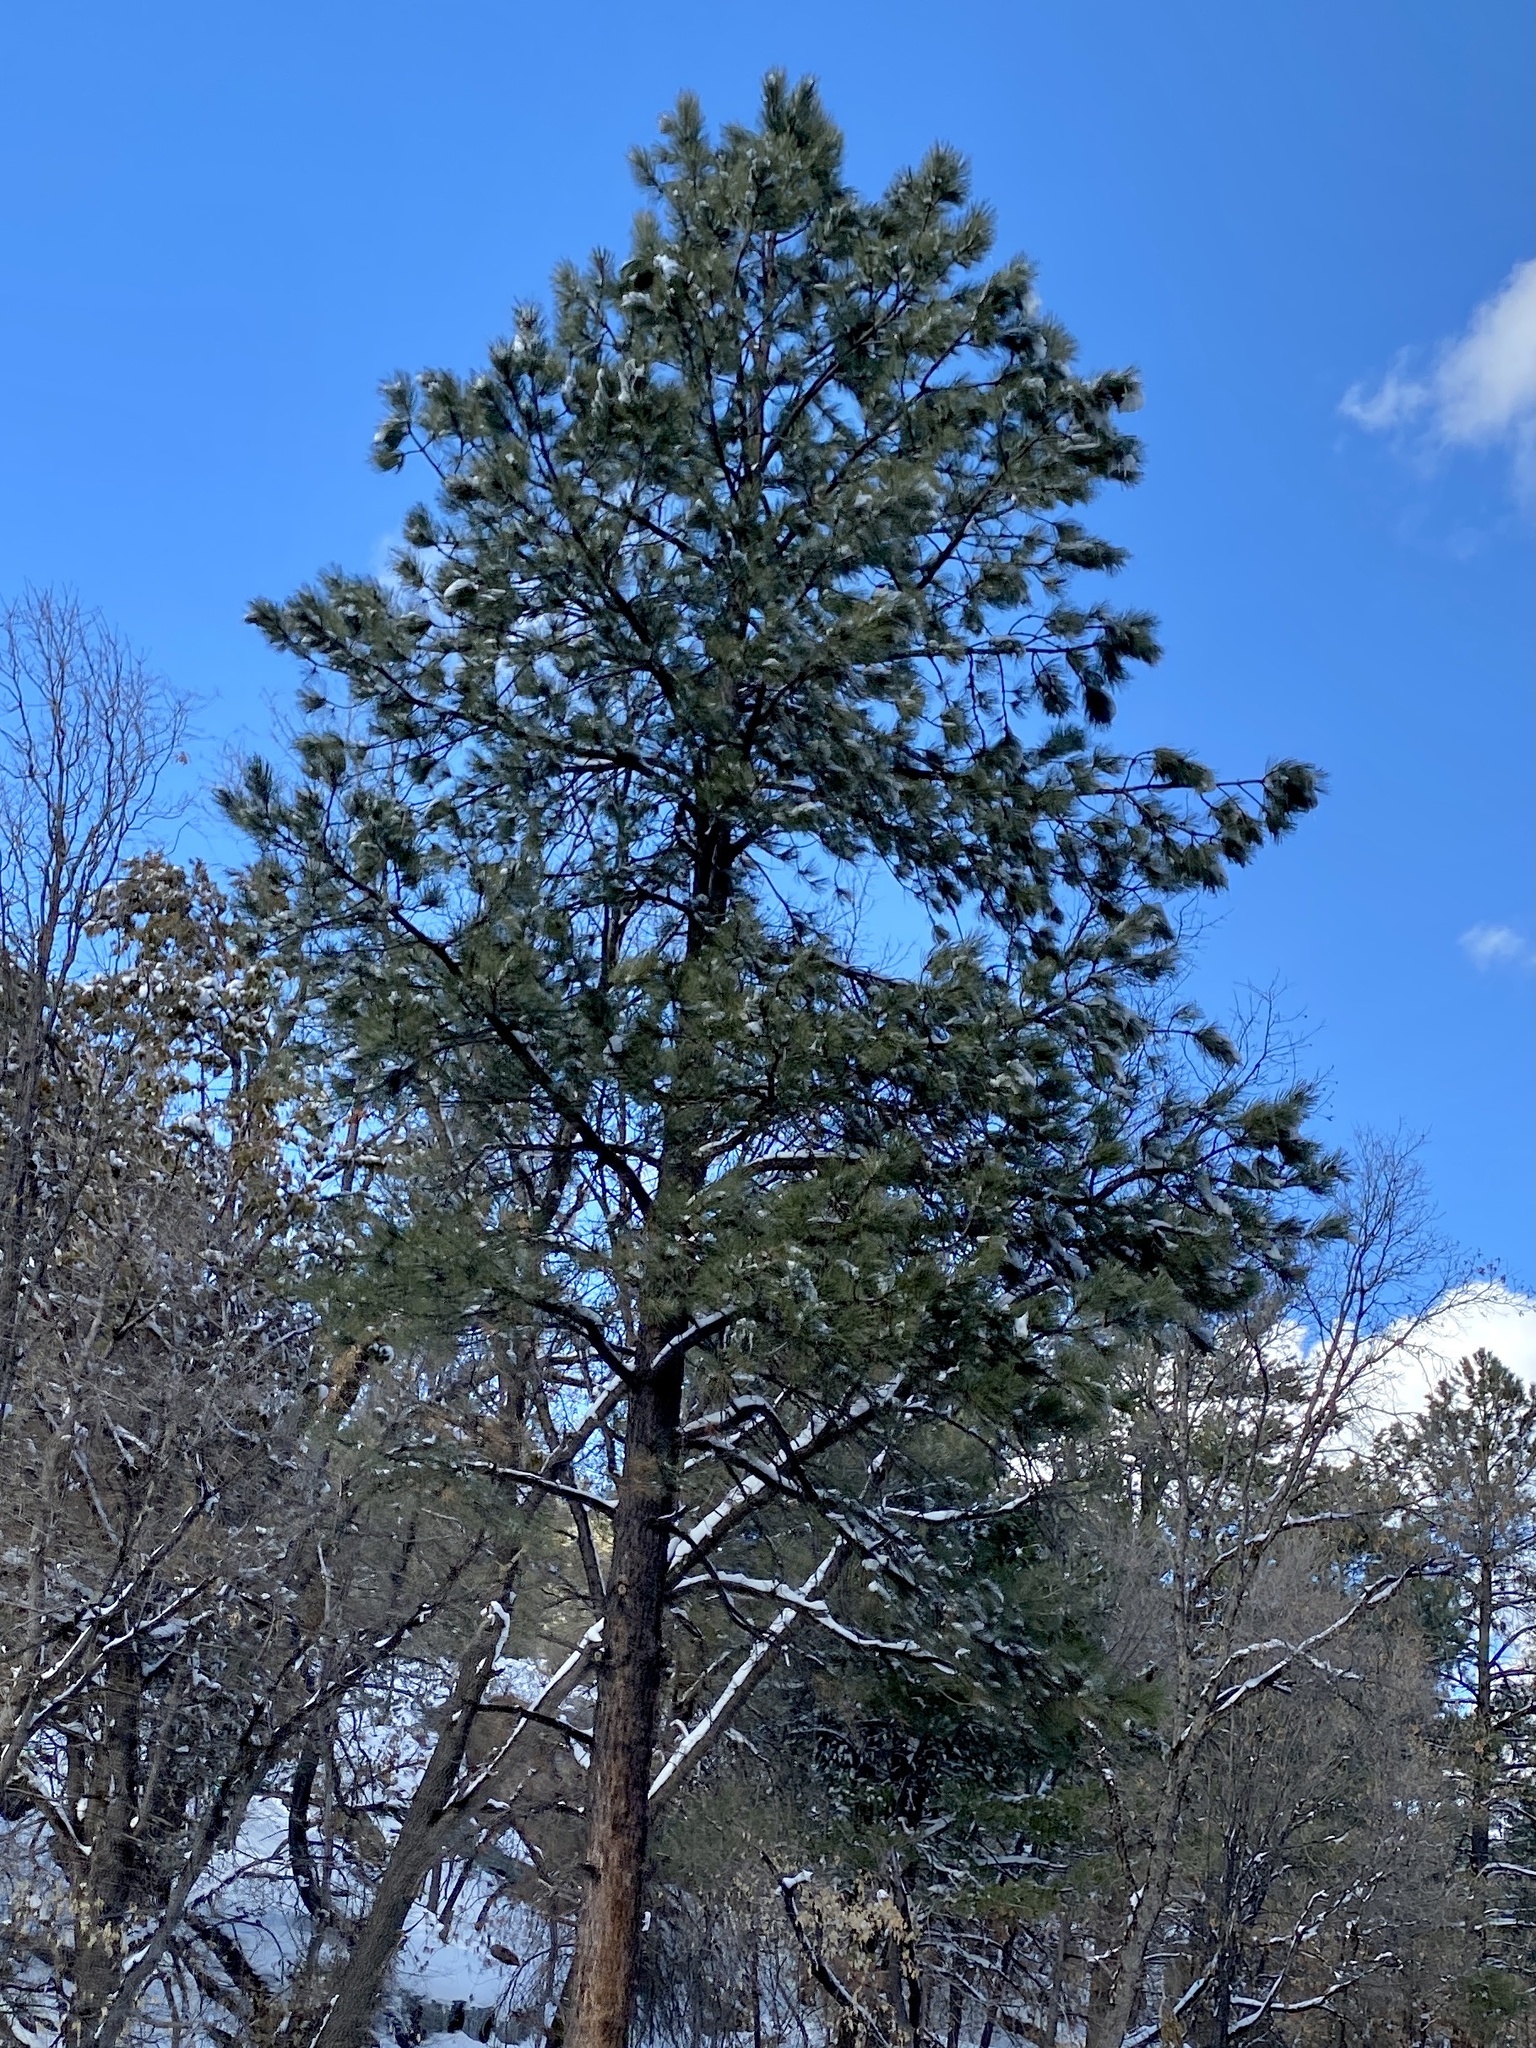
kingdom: Plantae
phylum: Tracheophyta
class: Pinopsida
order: Pinales
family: Pinaceae
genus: Pinus
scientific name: Pinus ponderosa
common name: Western yellow-pine
